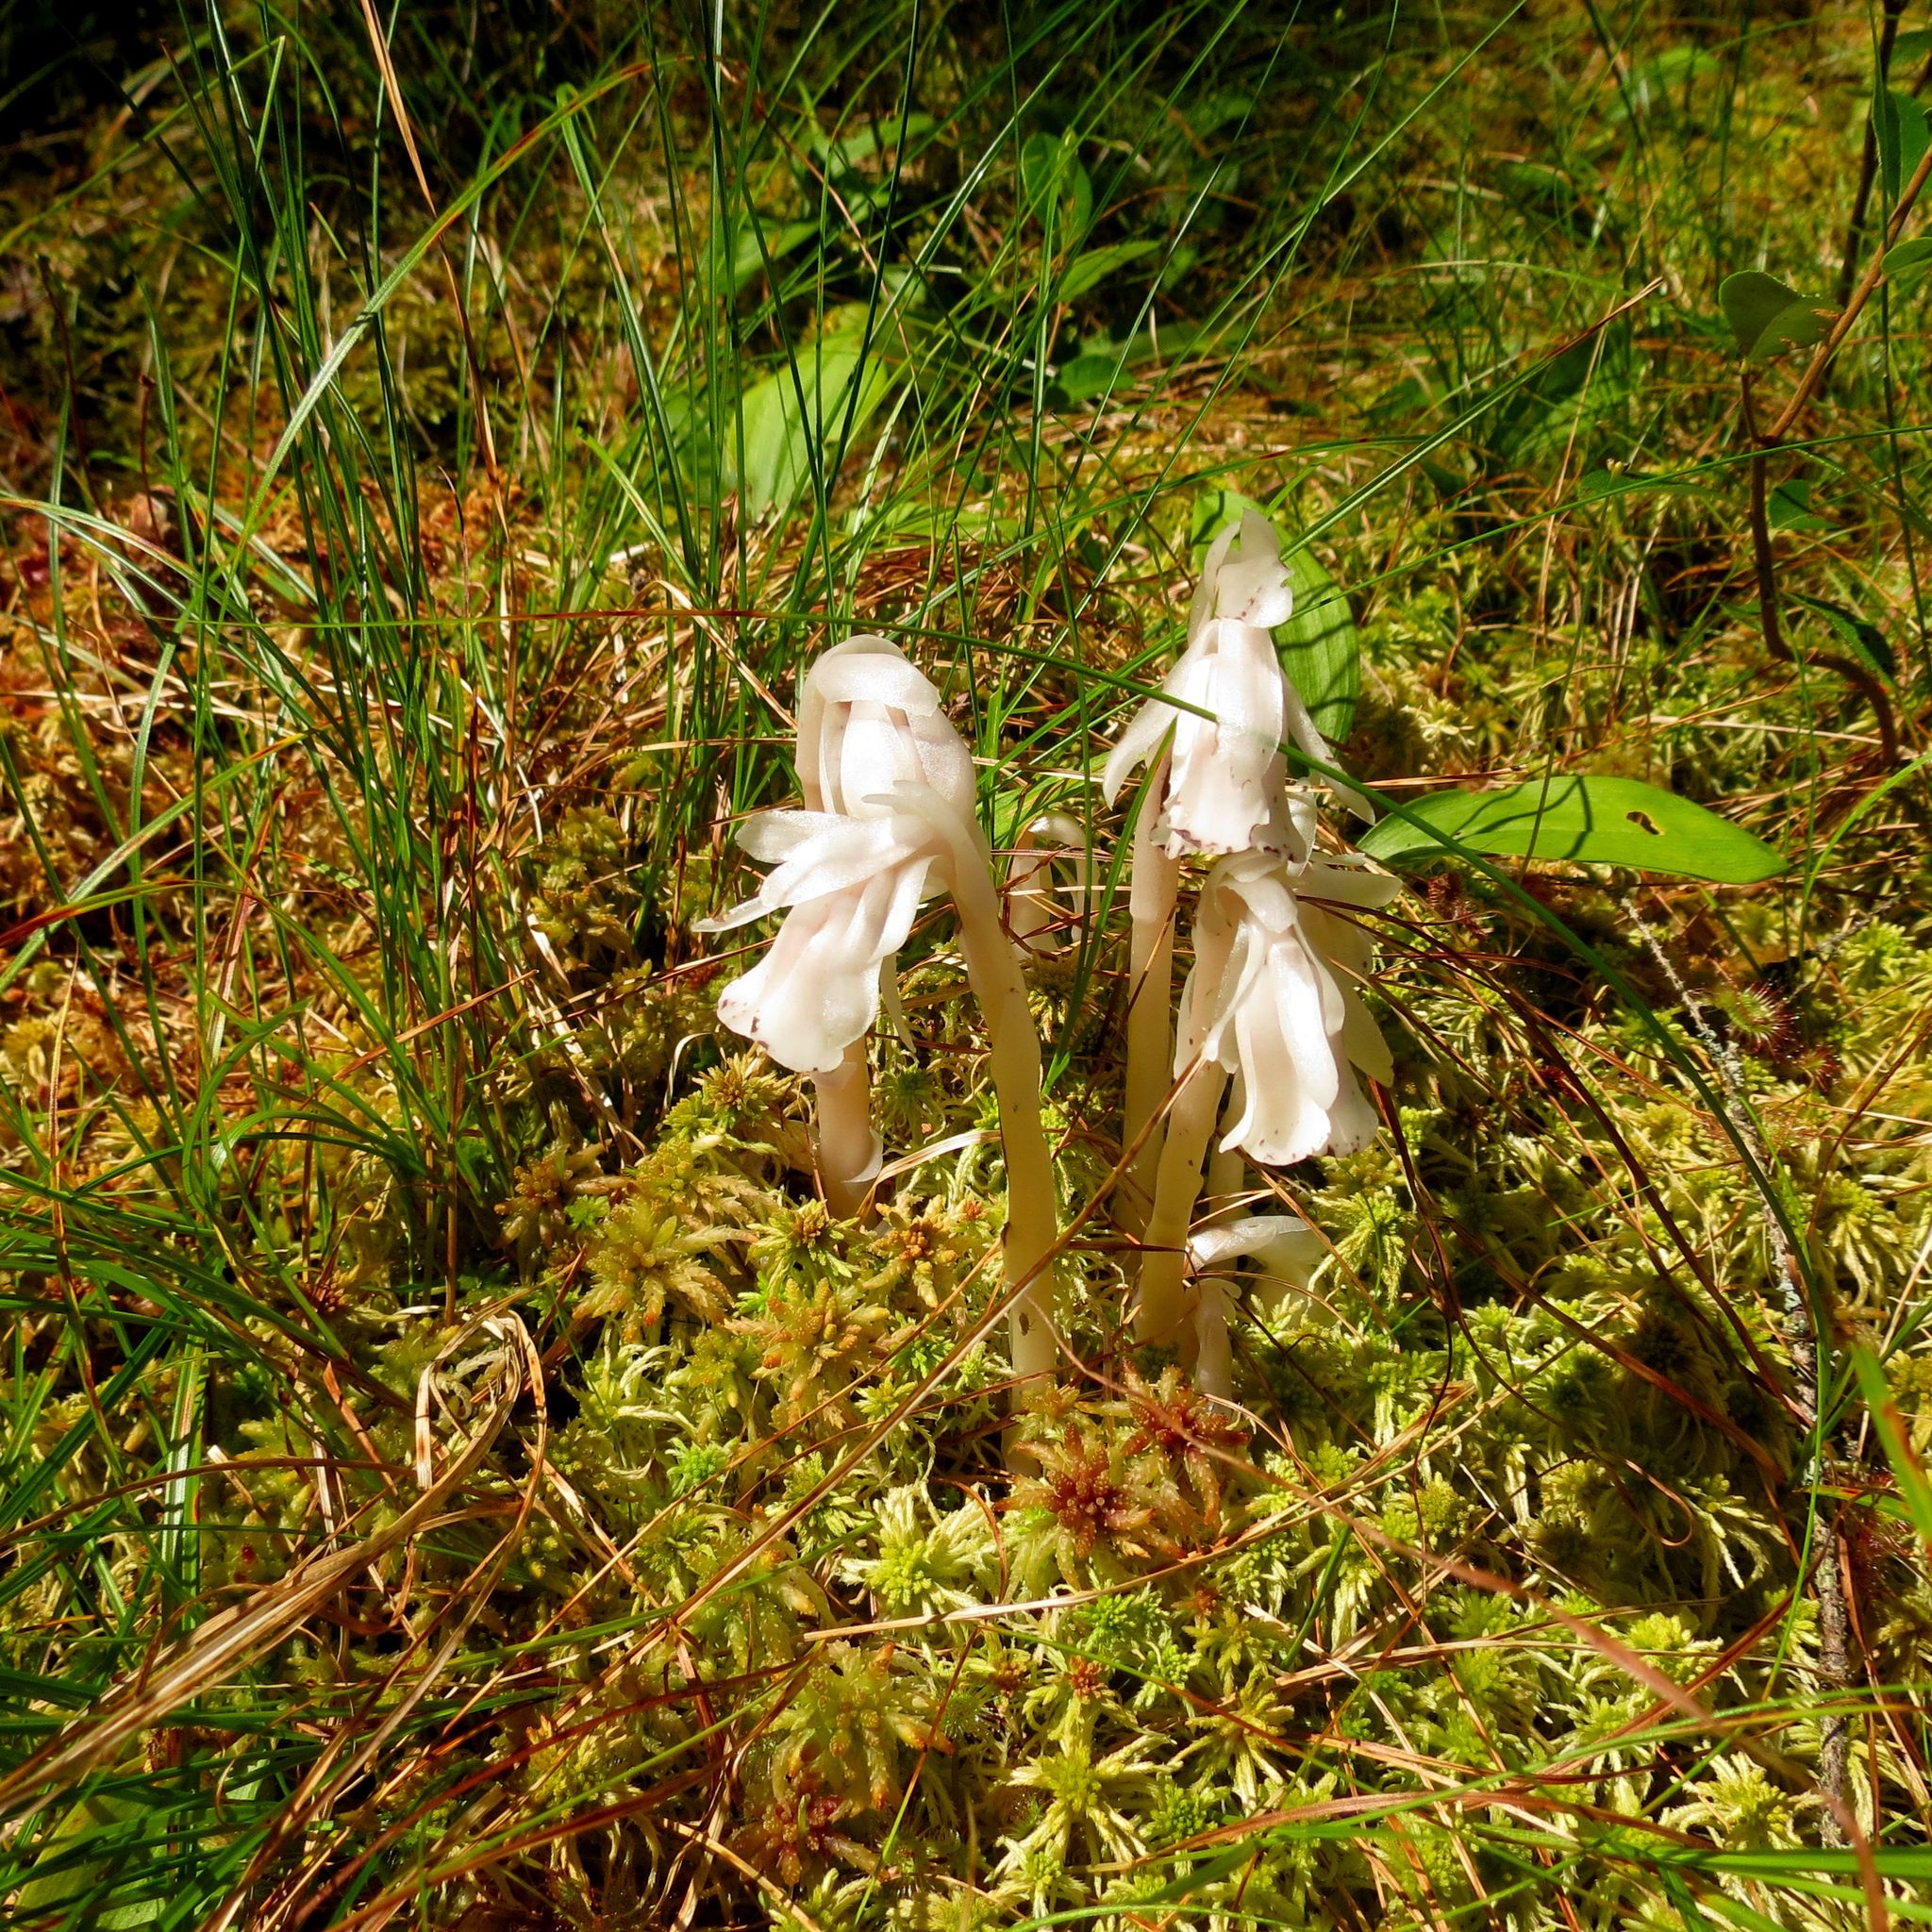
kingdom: Plantae
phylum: Tracheophyta
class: Magnoliopsida
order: Ericales
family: Ericaceae
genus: Monotropa
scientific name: Monotropa uniflora
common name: Convulsion root
